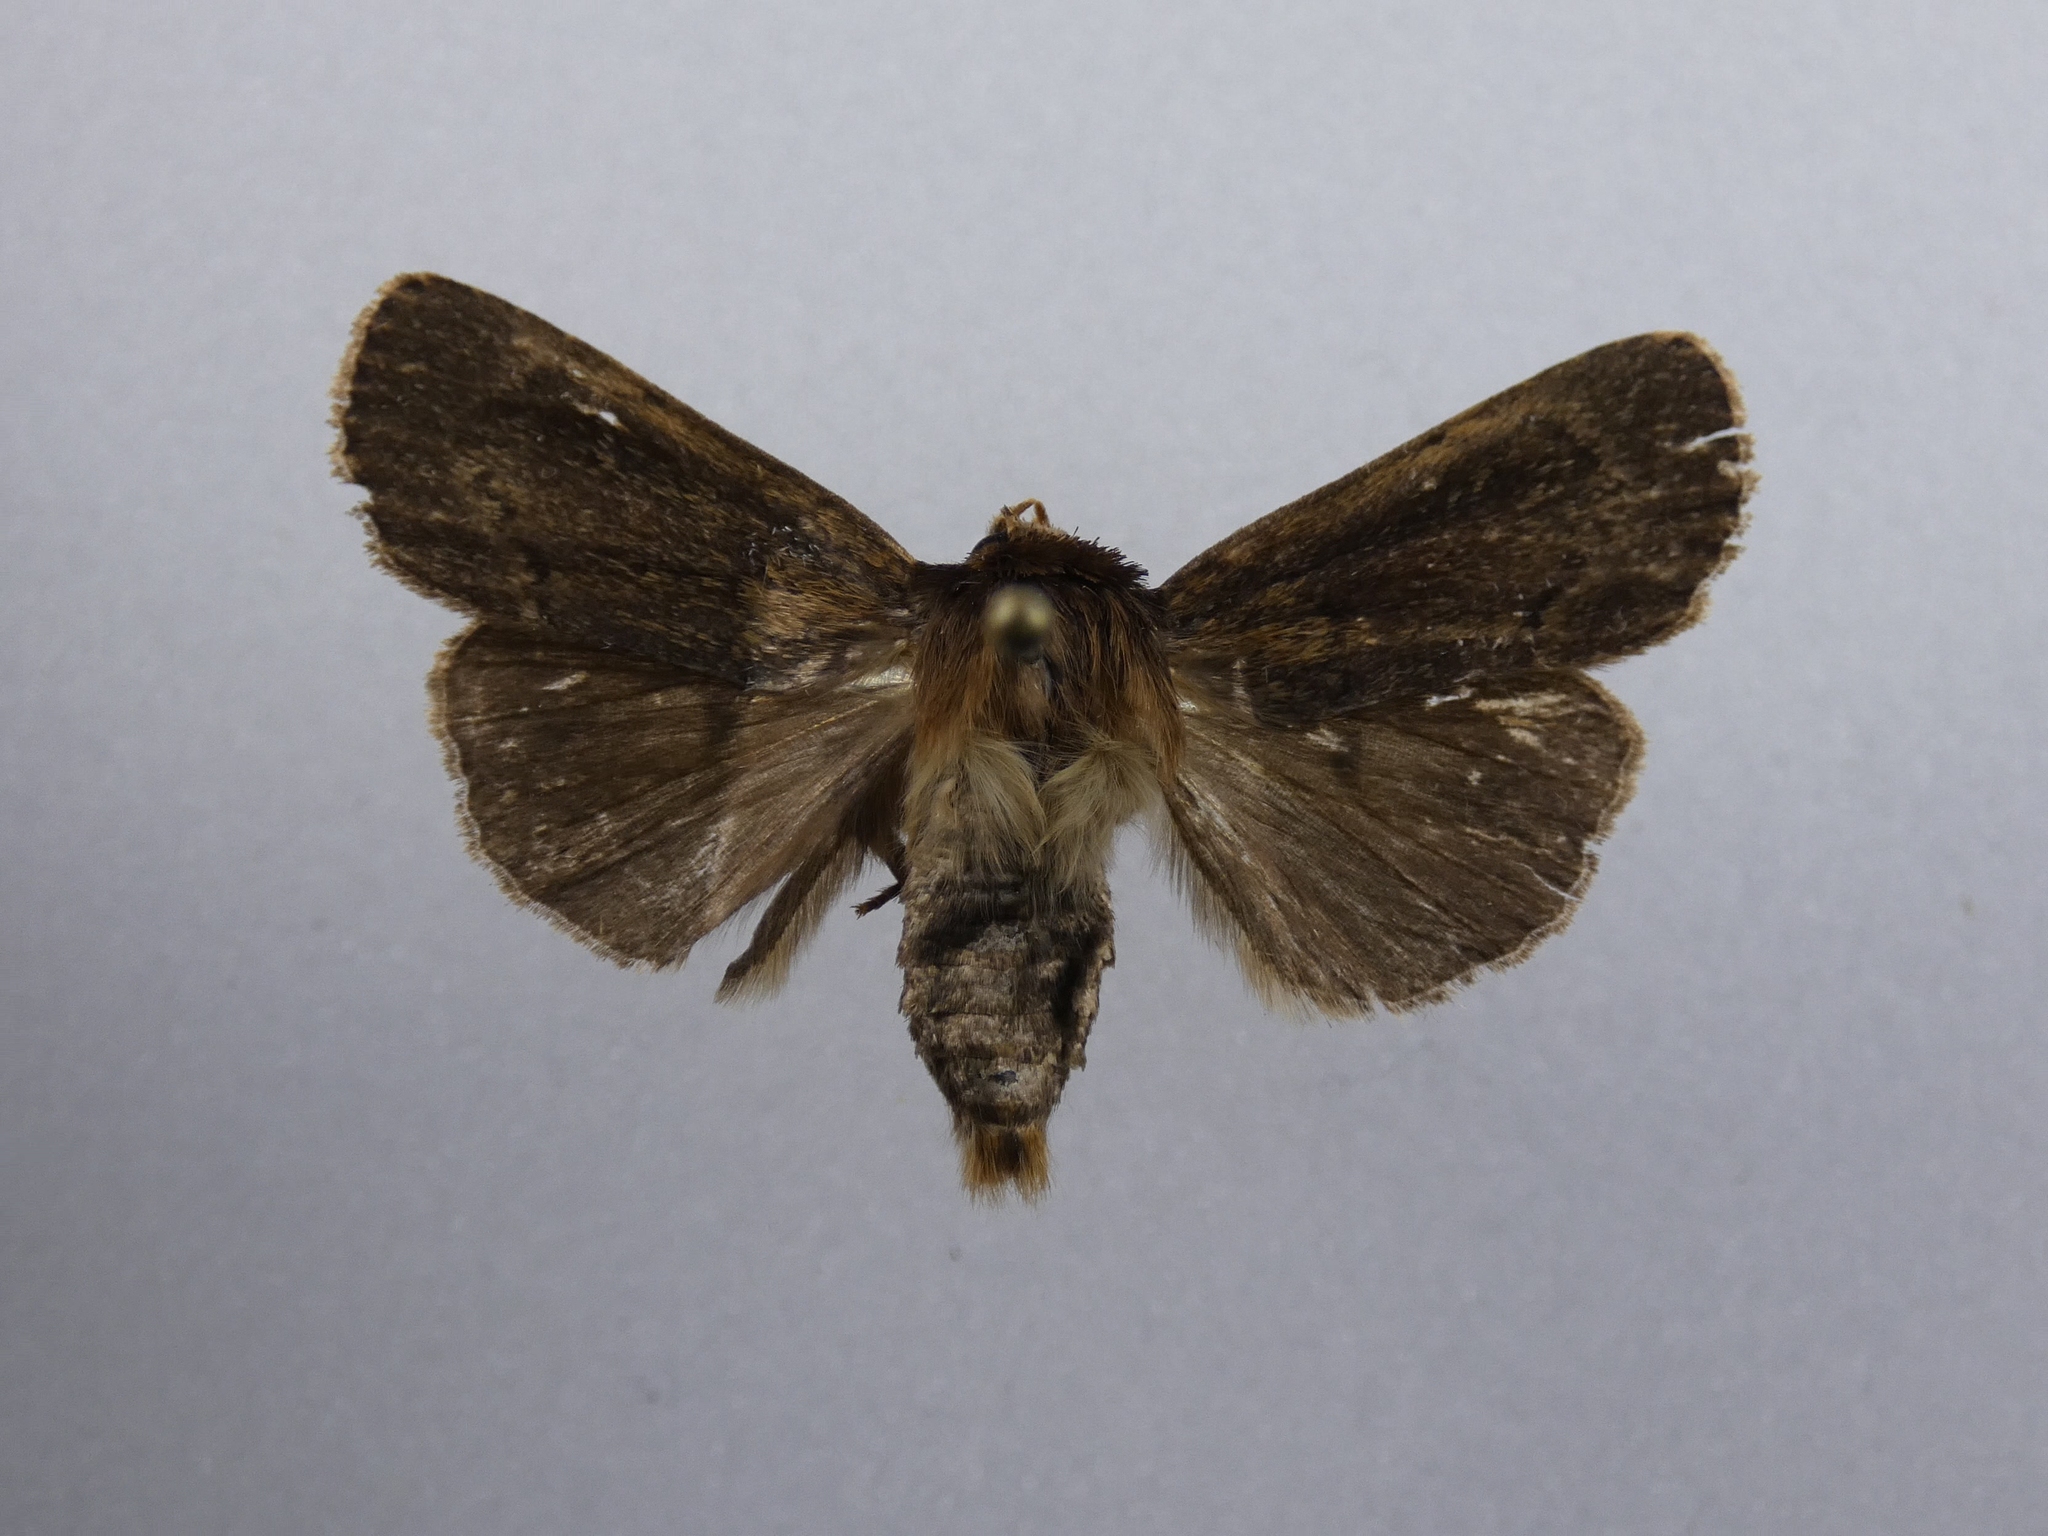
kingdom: Animalia
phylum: Arthropoda
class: Insecta
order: Lepidoptera
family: Noctuidae
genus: Bityla
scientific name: Bityla defigurata
